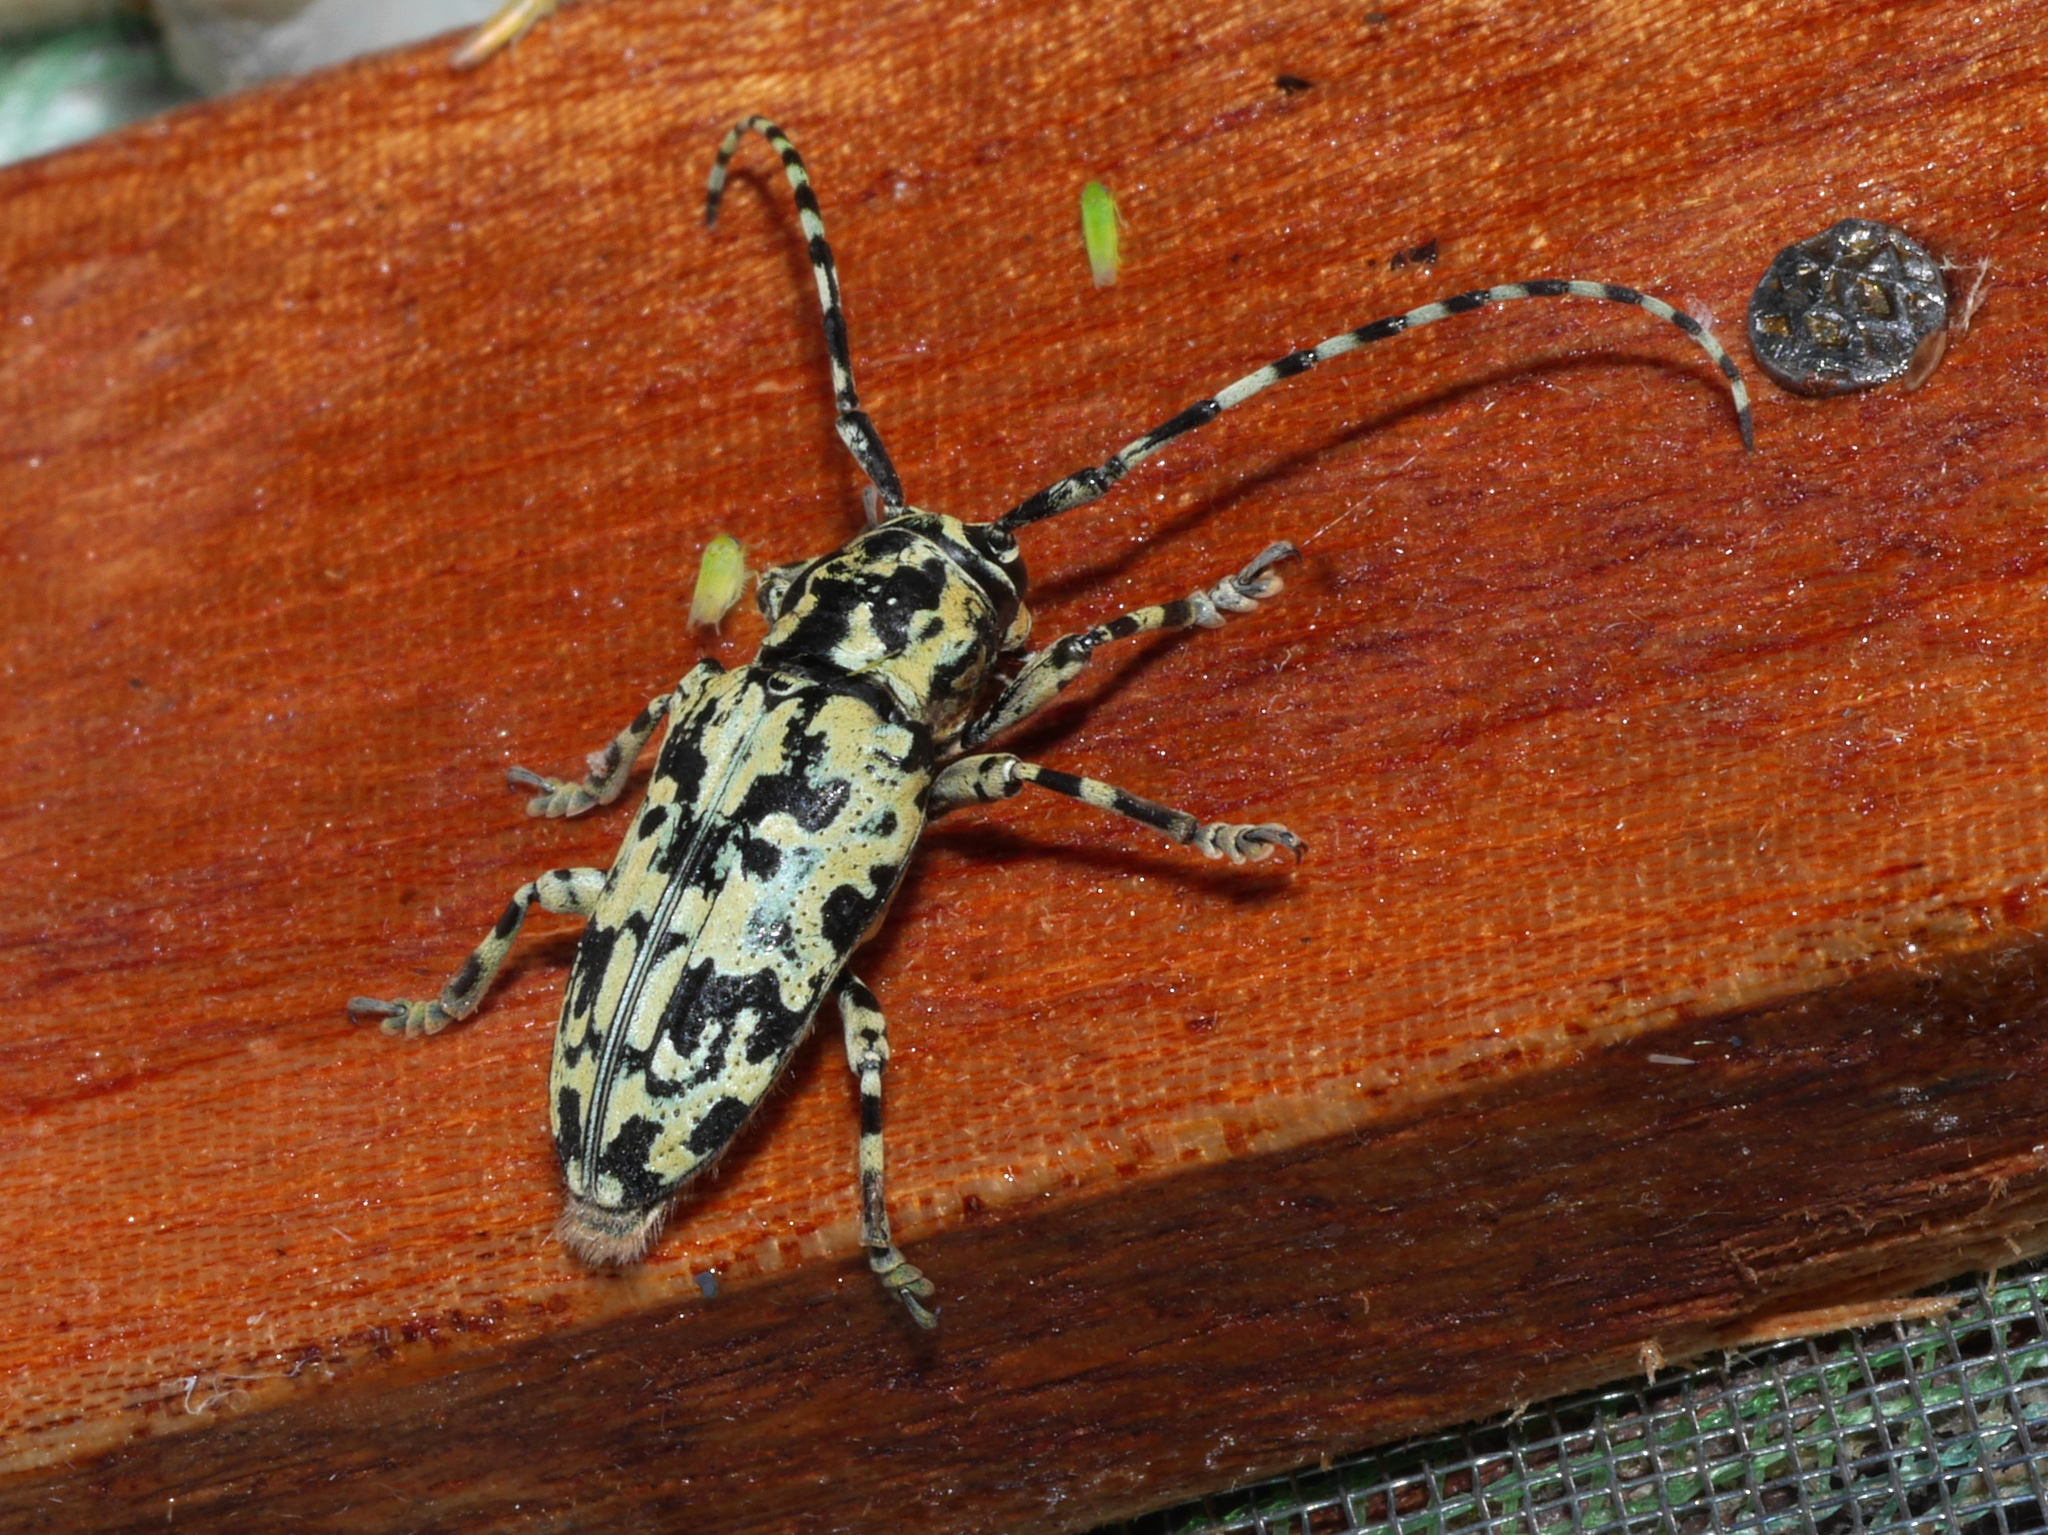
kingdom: Animalia
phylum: Arthropoda
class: Insecta
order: Coleoptera
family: Cerambycidae
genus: Freadelpha
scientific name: Freadelpha eremita
